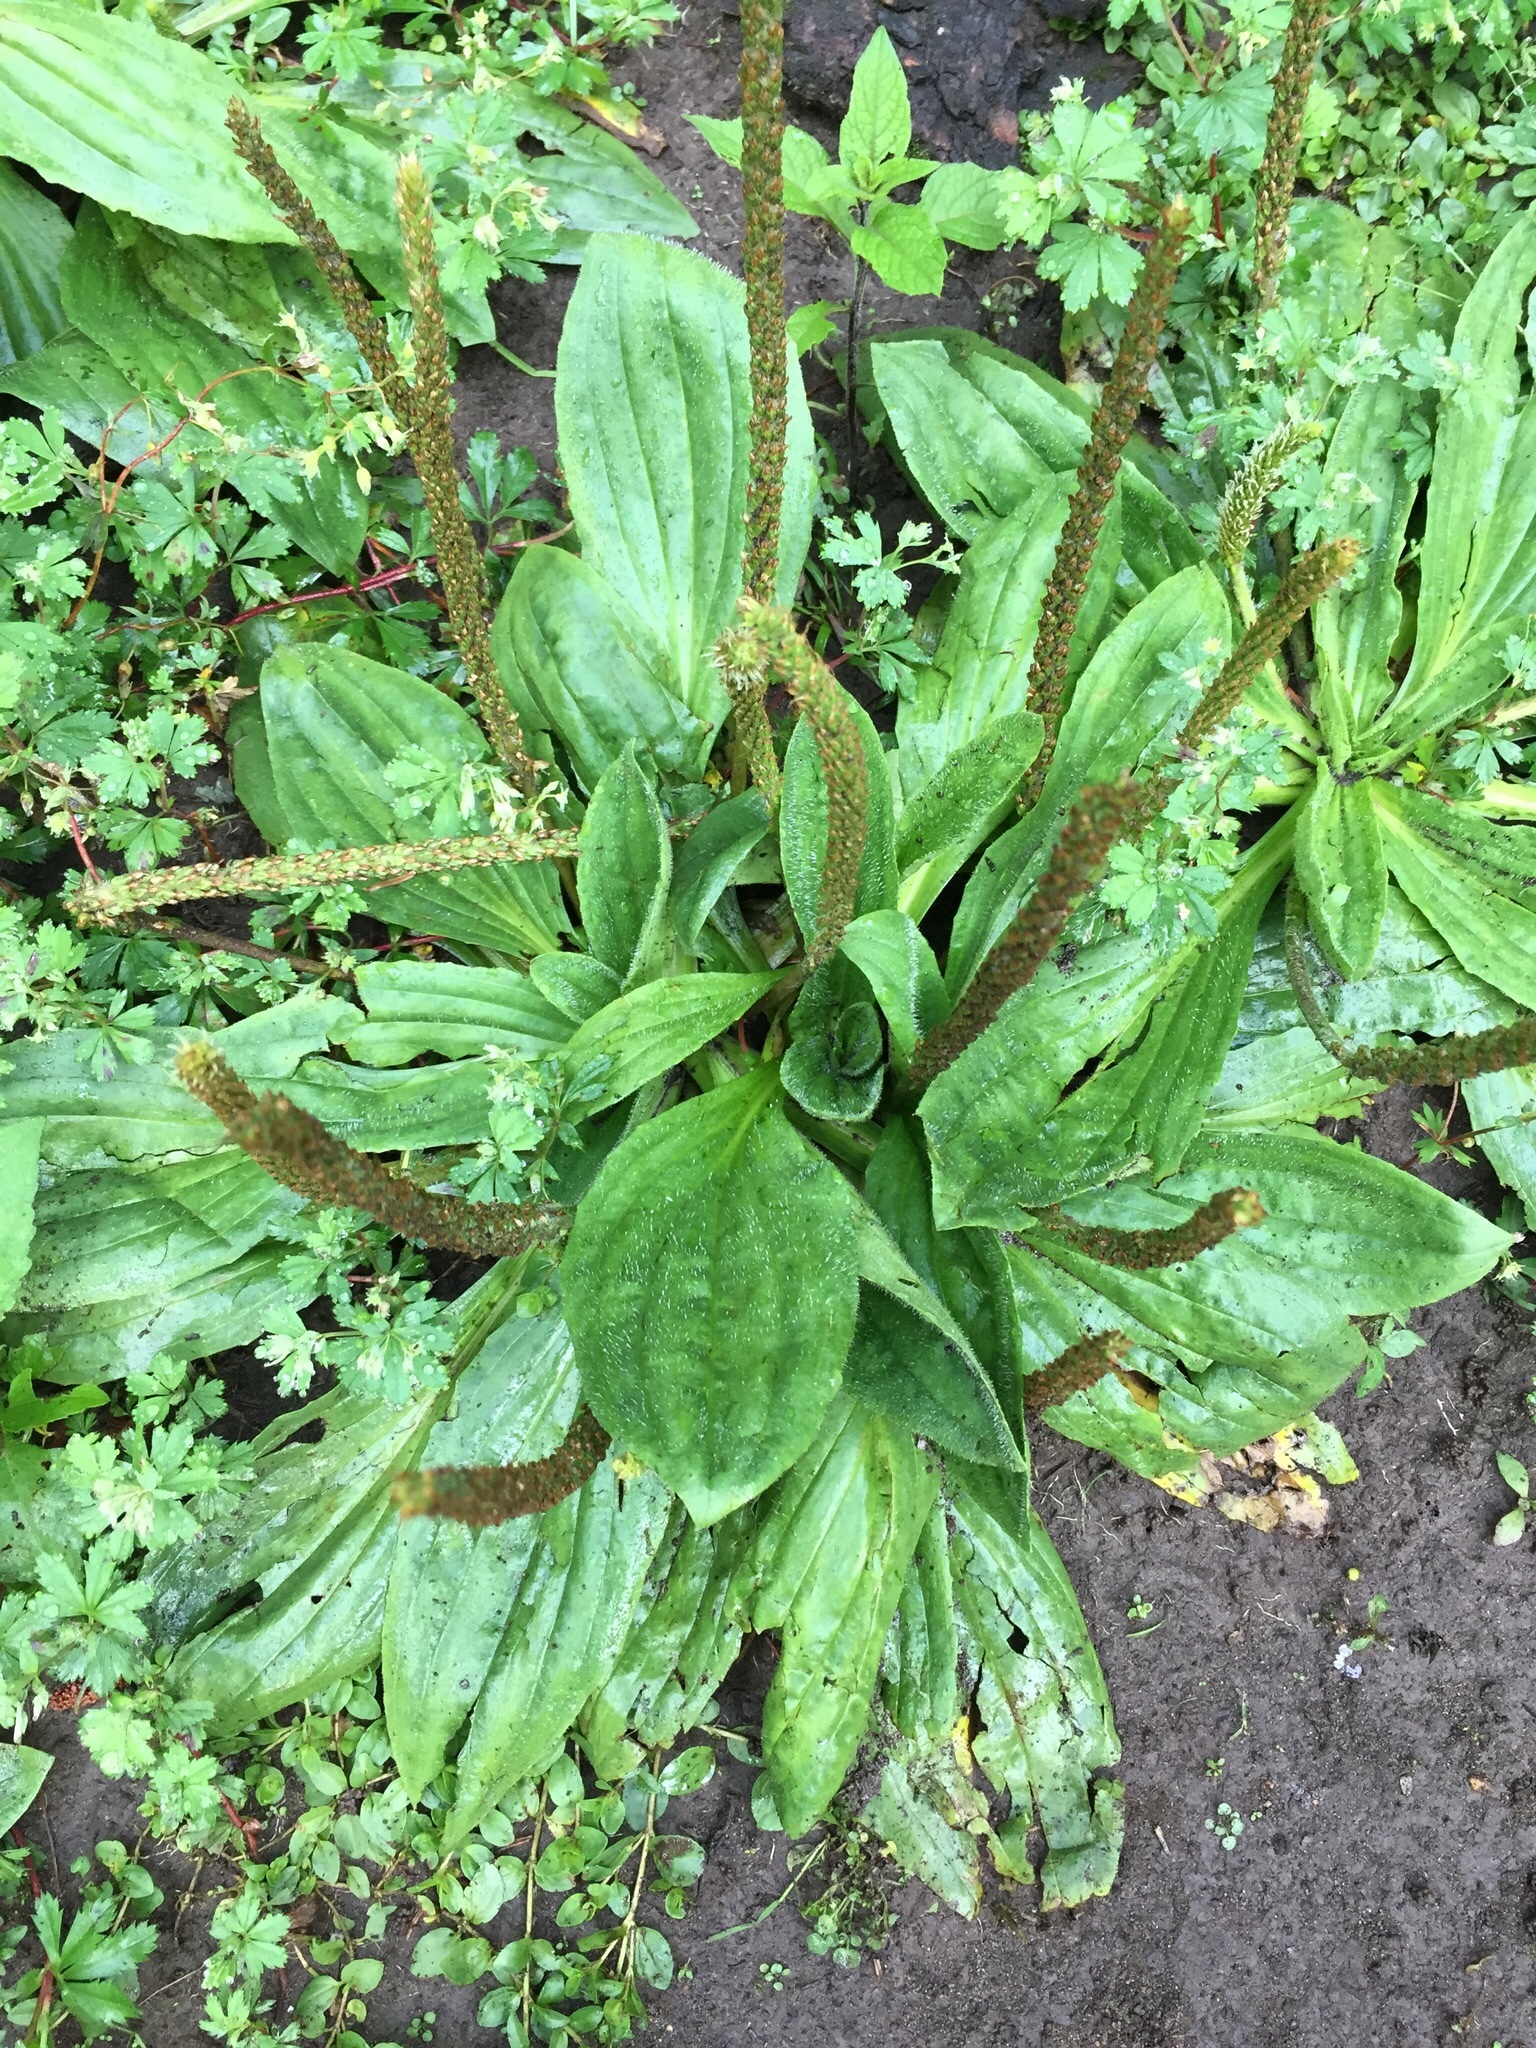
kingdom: Plantae
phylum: Tracheophyta
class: Magnoliopsida
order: Lamiales
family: Plantaginaceae
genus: Plantago
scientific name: Plantago major
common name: Common plantain
